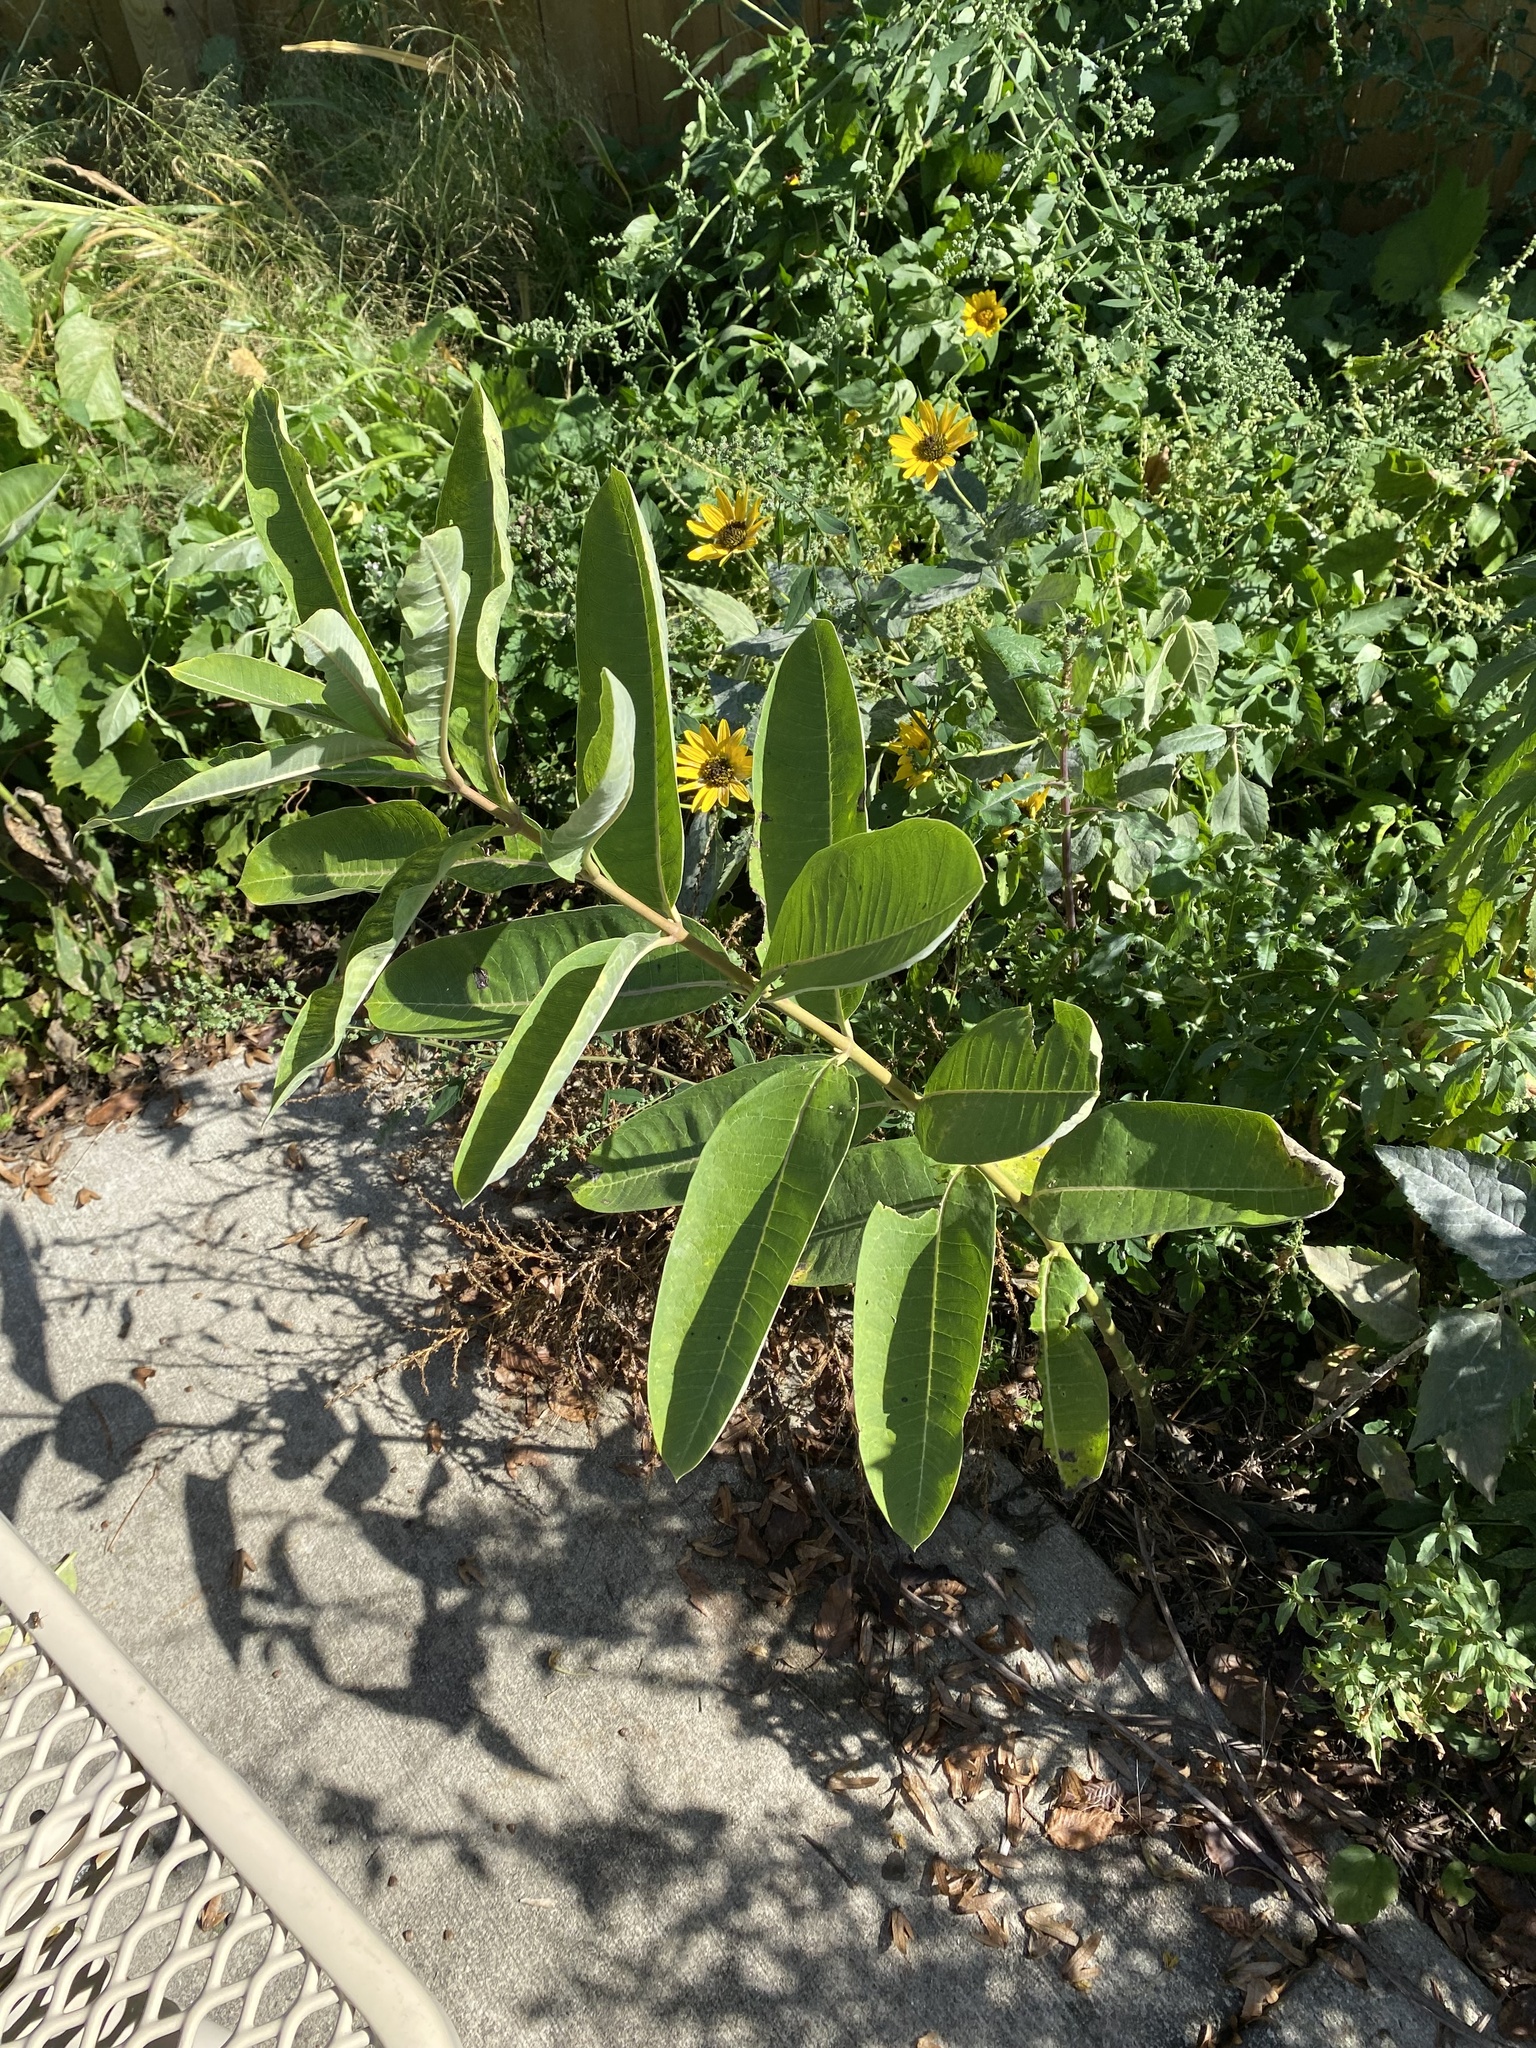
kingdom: Plantae
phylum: Tracheophyta
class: Magnoliopsida
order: Gentianales
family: Apocynaceae
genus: Asclepias
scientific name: Asclepias syriaca
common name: Common milkweed
